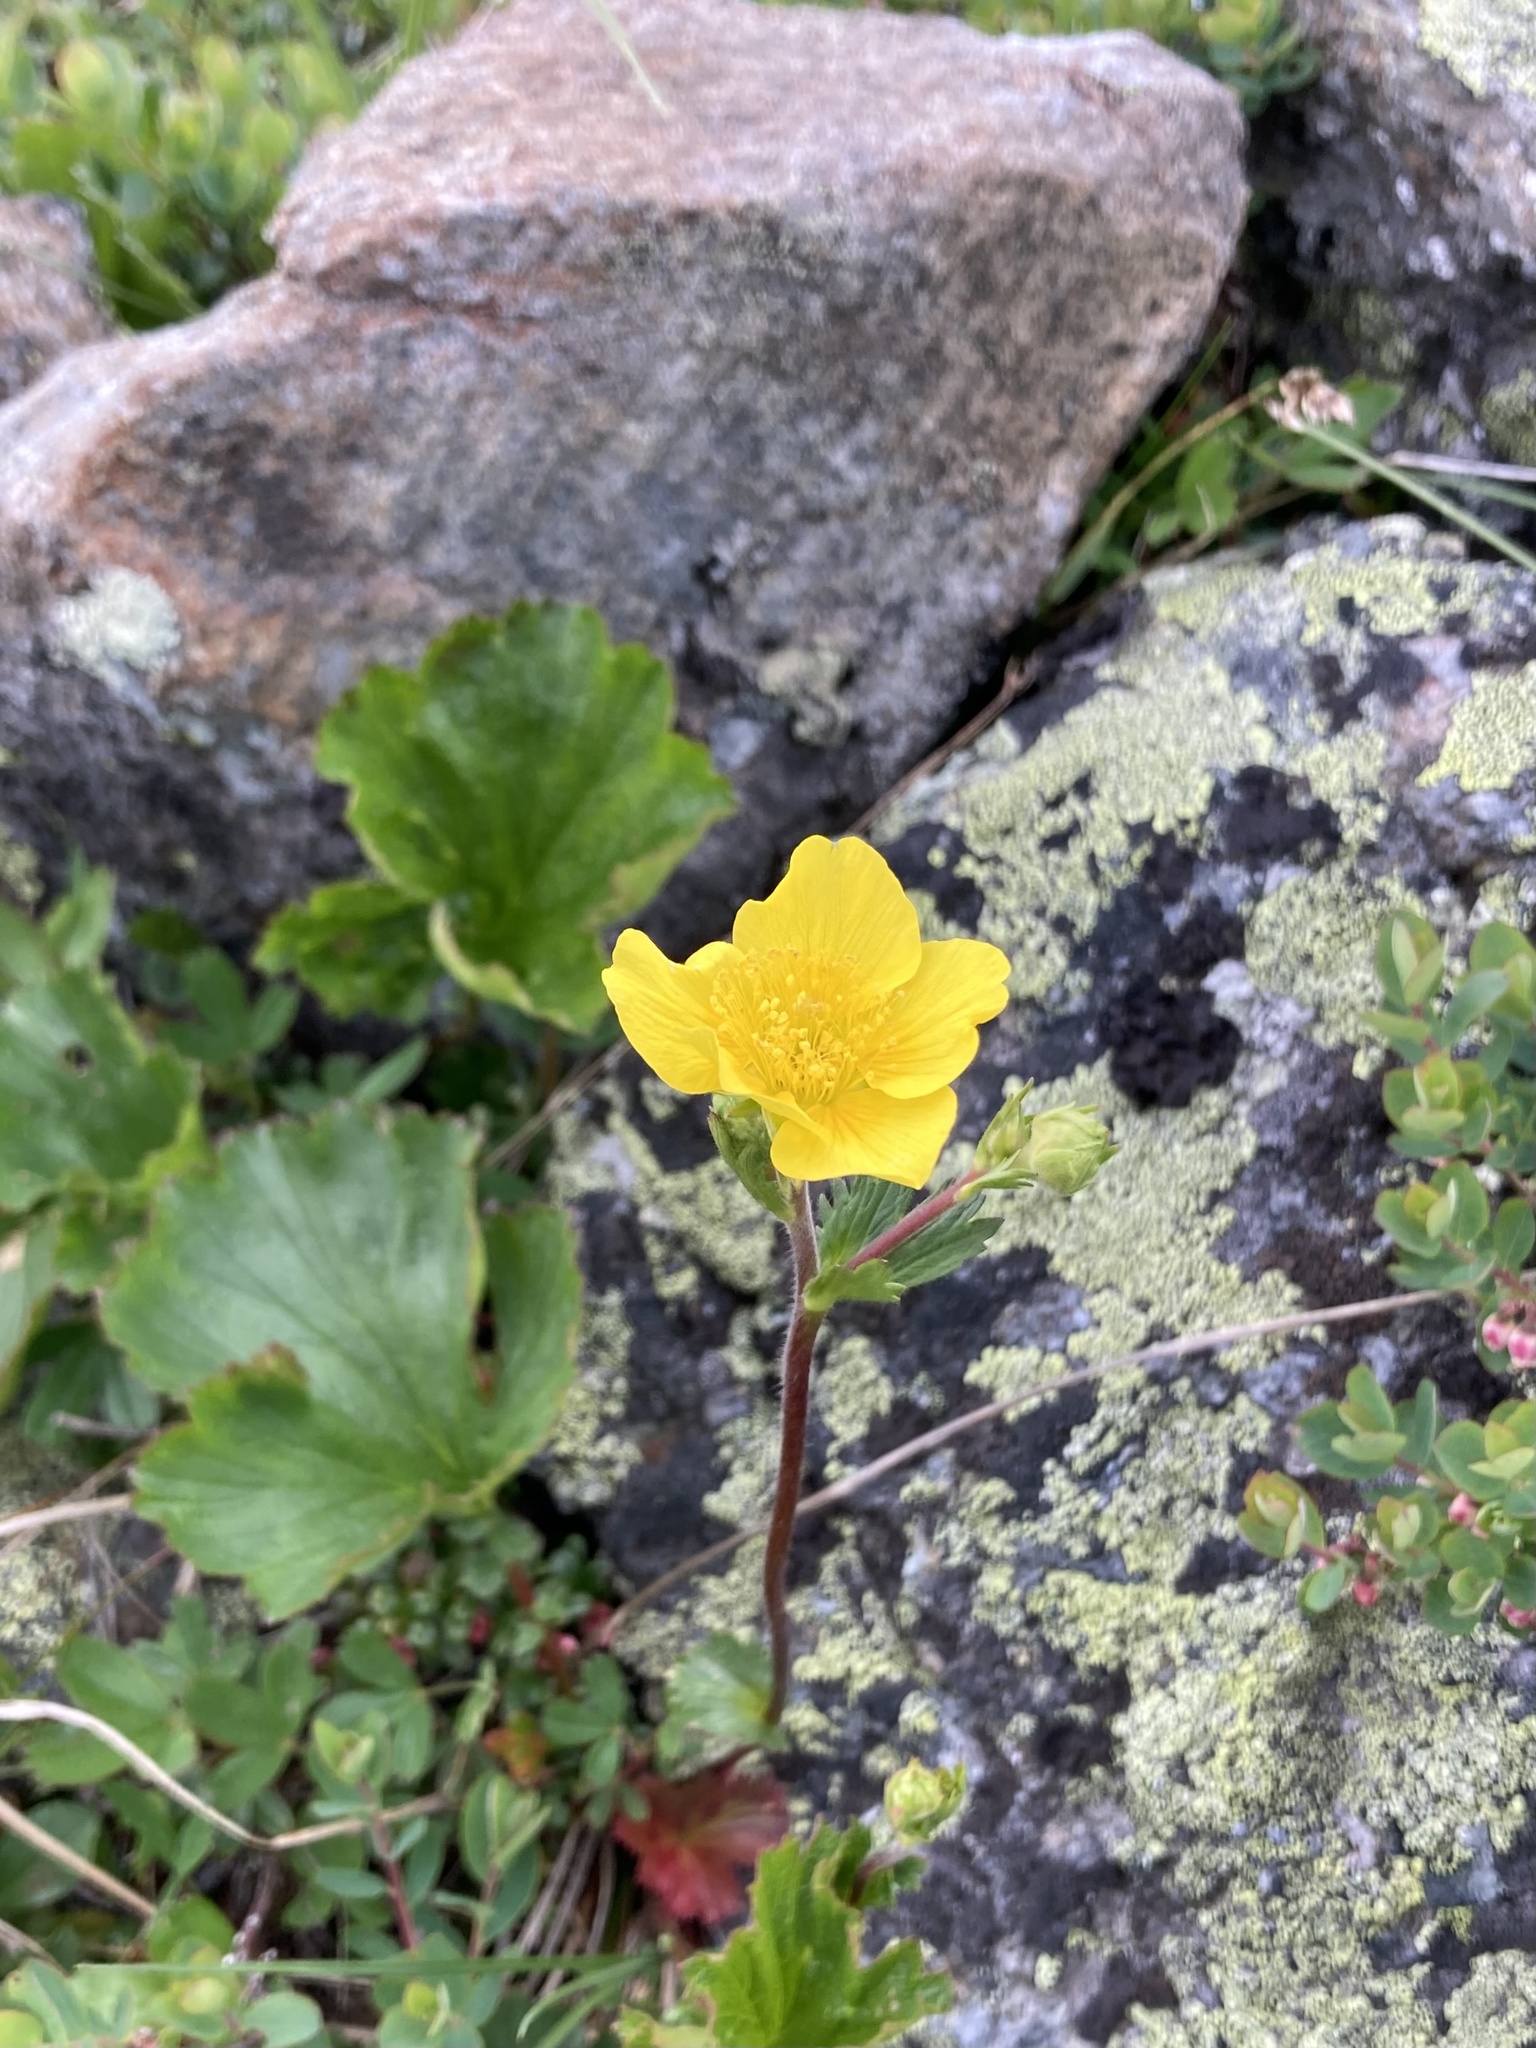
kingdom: Plantae
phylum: Tracheophyta
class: Magnoliopsida
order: Rosales
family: Rosaceae
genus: Geum
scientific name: Geum peckii
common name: Eastern mountain avens
